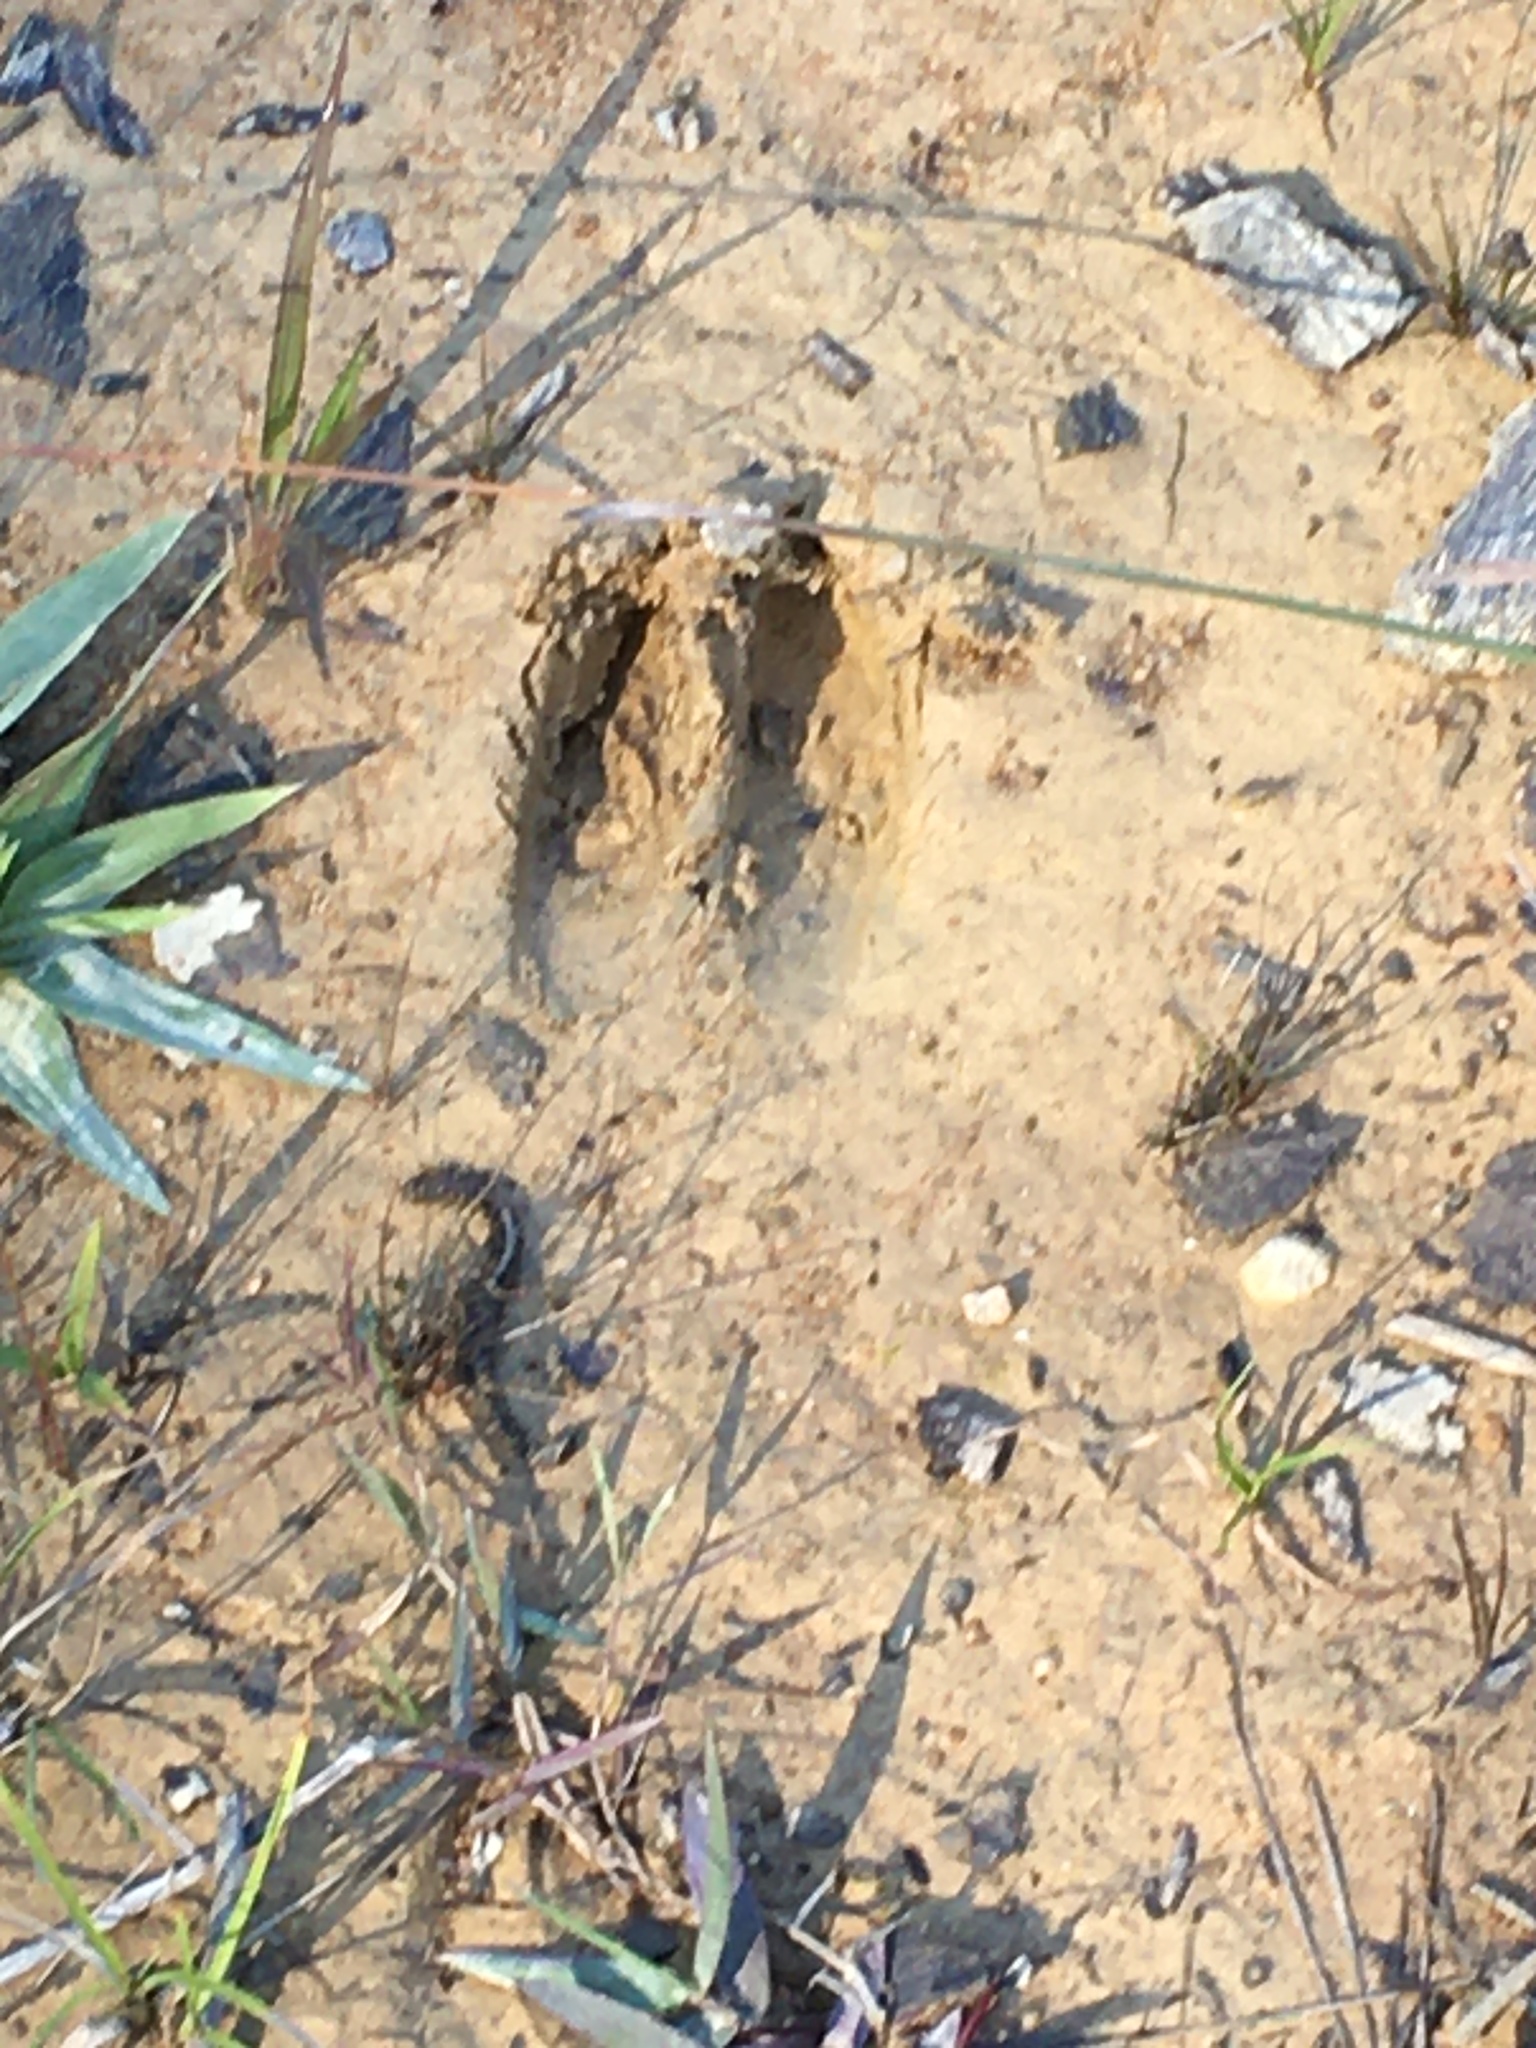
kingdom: Animalia
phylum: Chordata
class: Mammalia
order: Artiodactyla
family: Cervidae
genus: Odocoileus
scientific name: Odocoileus virginianus
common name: White-tailed deer
